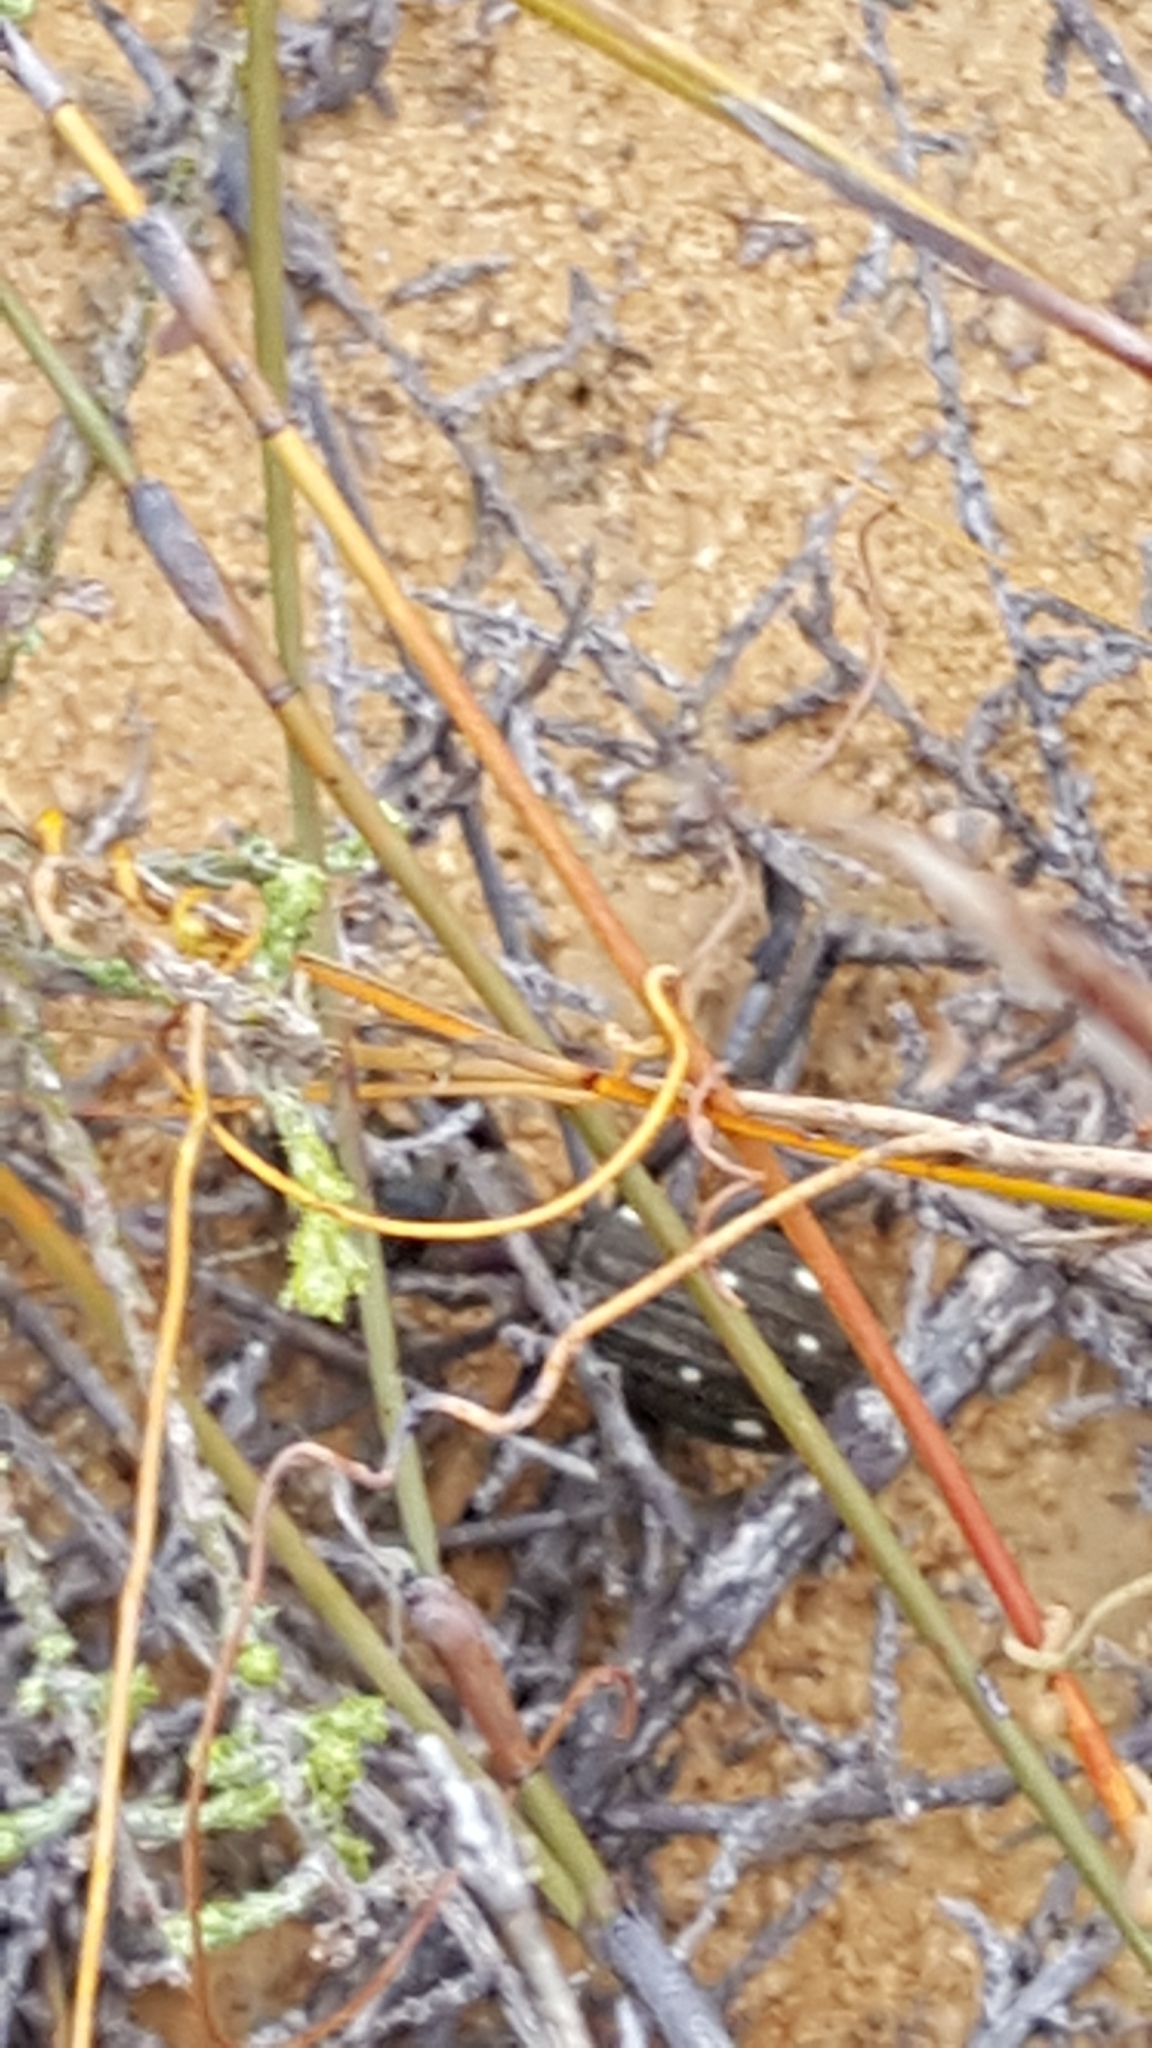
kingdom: Animalia
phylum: Arthropoda
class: Insecta
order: Coleoptera
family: Carabidae
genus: Anthia
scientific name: Anthia decemguttata
